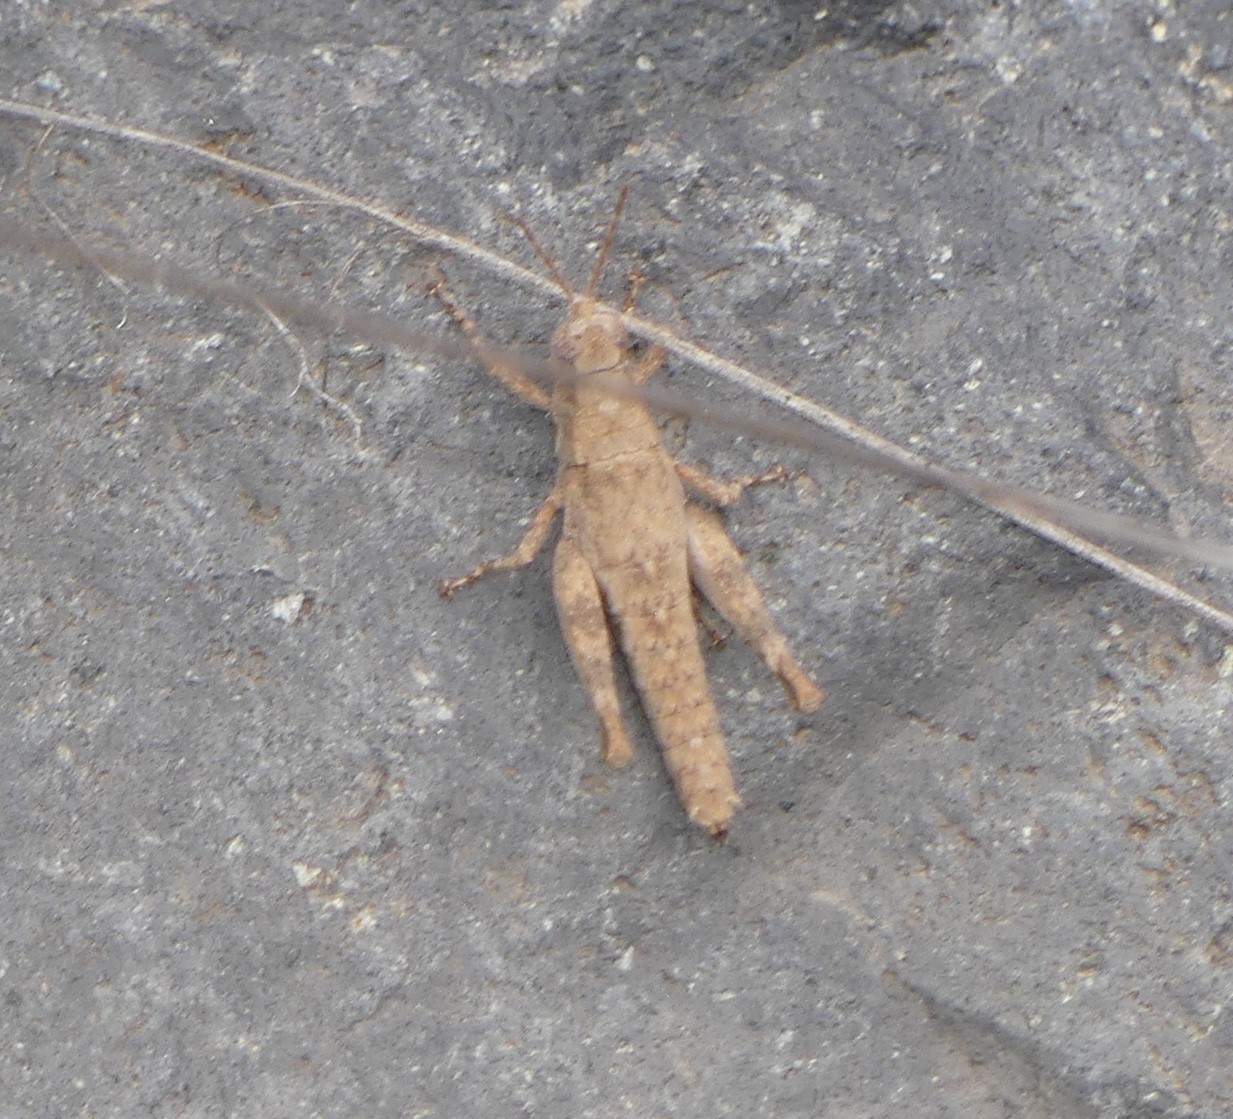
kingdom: Animalia
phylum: Arthropoda
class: Insecta
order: Orthoptera
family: Acrididae
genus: Arminda
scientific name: Arminda burri
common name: Gran canaria rock grasshopper
